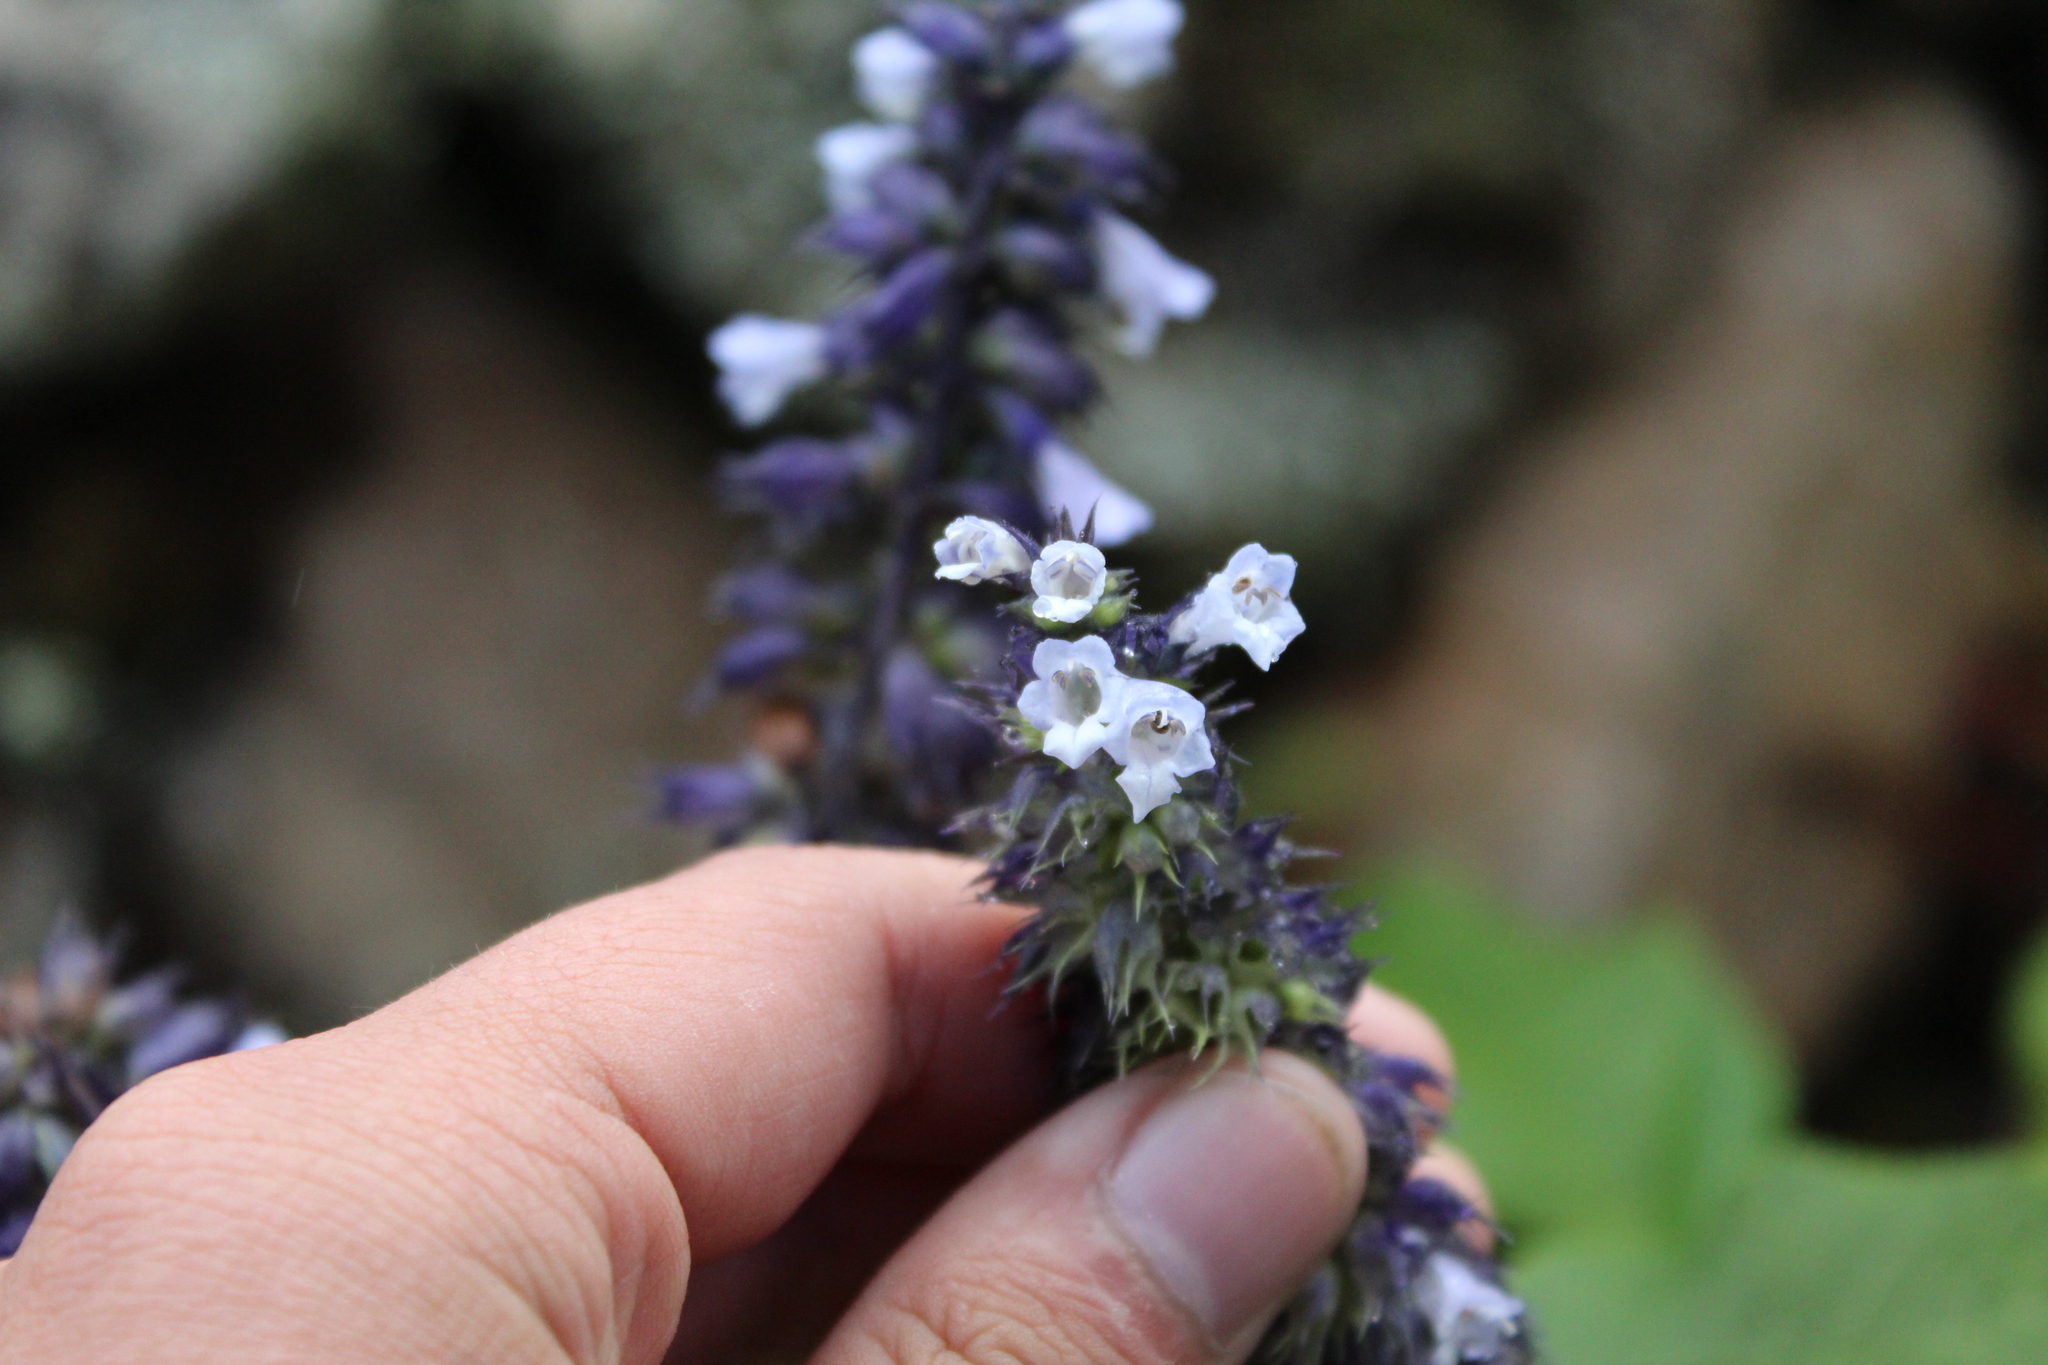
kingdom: Plantae
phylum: Tracheophyta
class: Magnoliopsida
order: Lamiales
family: Lamiaceae
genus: Lepechinia
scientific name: Lepechinia salviifolia
